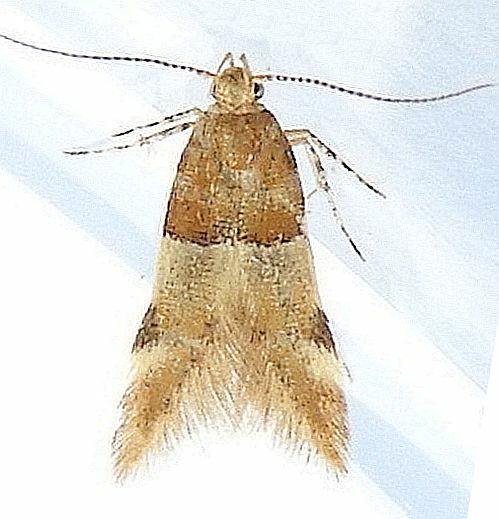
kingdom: Animalia
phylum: Arthropoda
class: Insecta
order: Lepidoptera
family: Gelechiidae
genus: Theisoa
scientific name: Theisoa constrictella
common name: Constricted twirler
